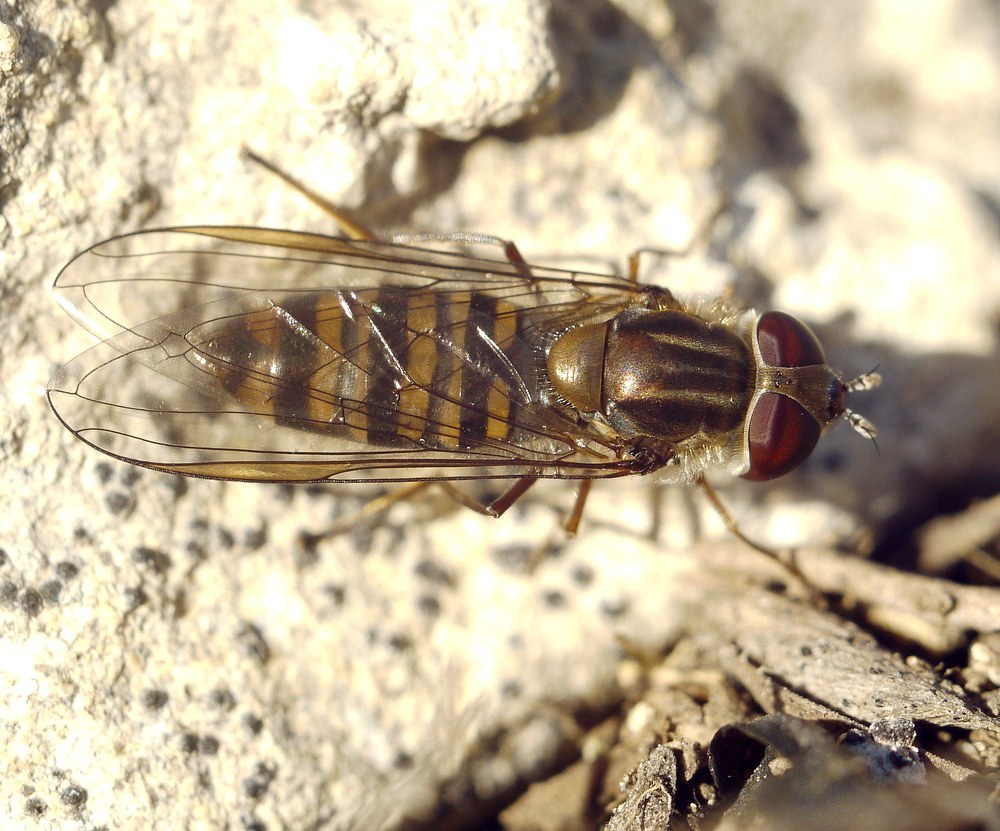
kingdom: Animalia
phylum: Arthropoda
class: Insecta
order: Diptera
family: Syrphidae
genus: Episyrphus
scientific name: Episyrphus balteatus
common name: Marmalade hoverfly
